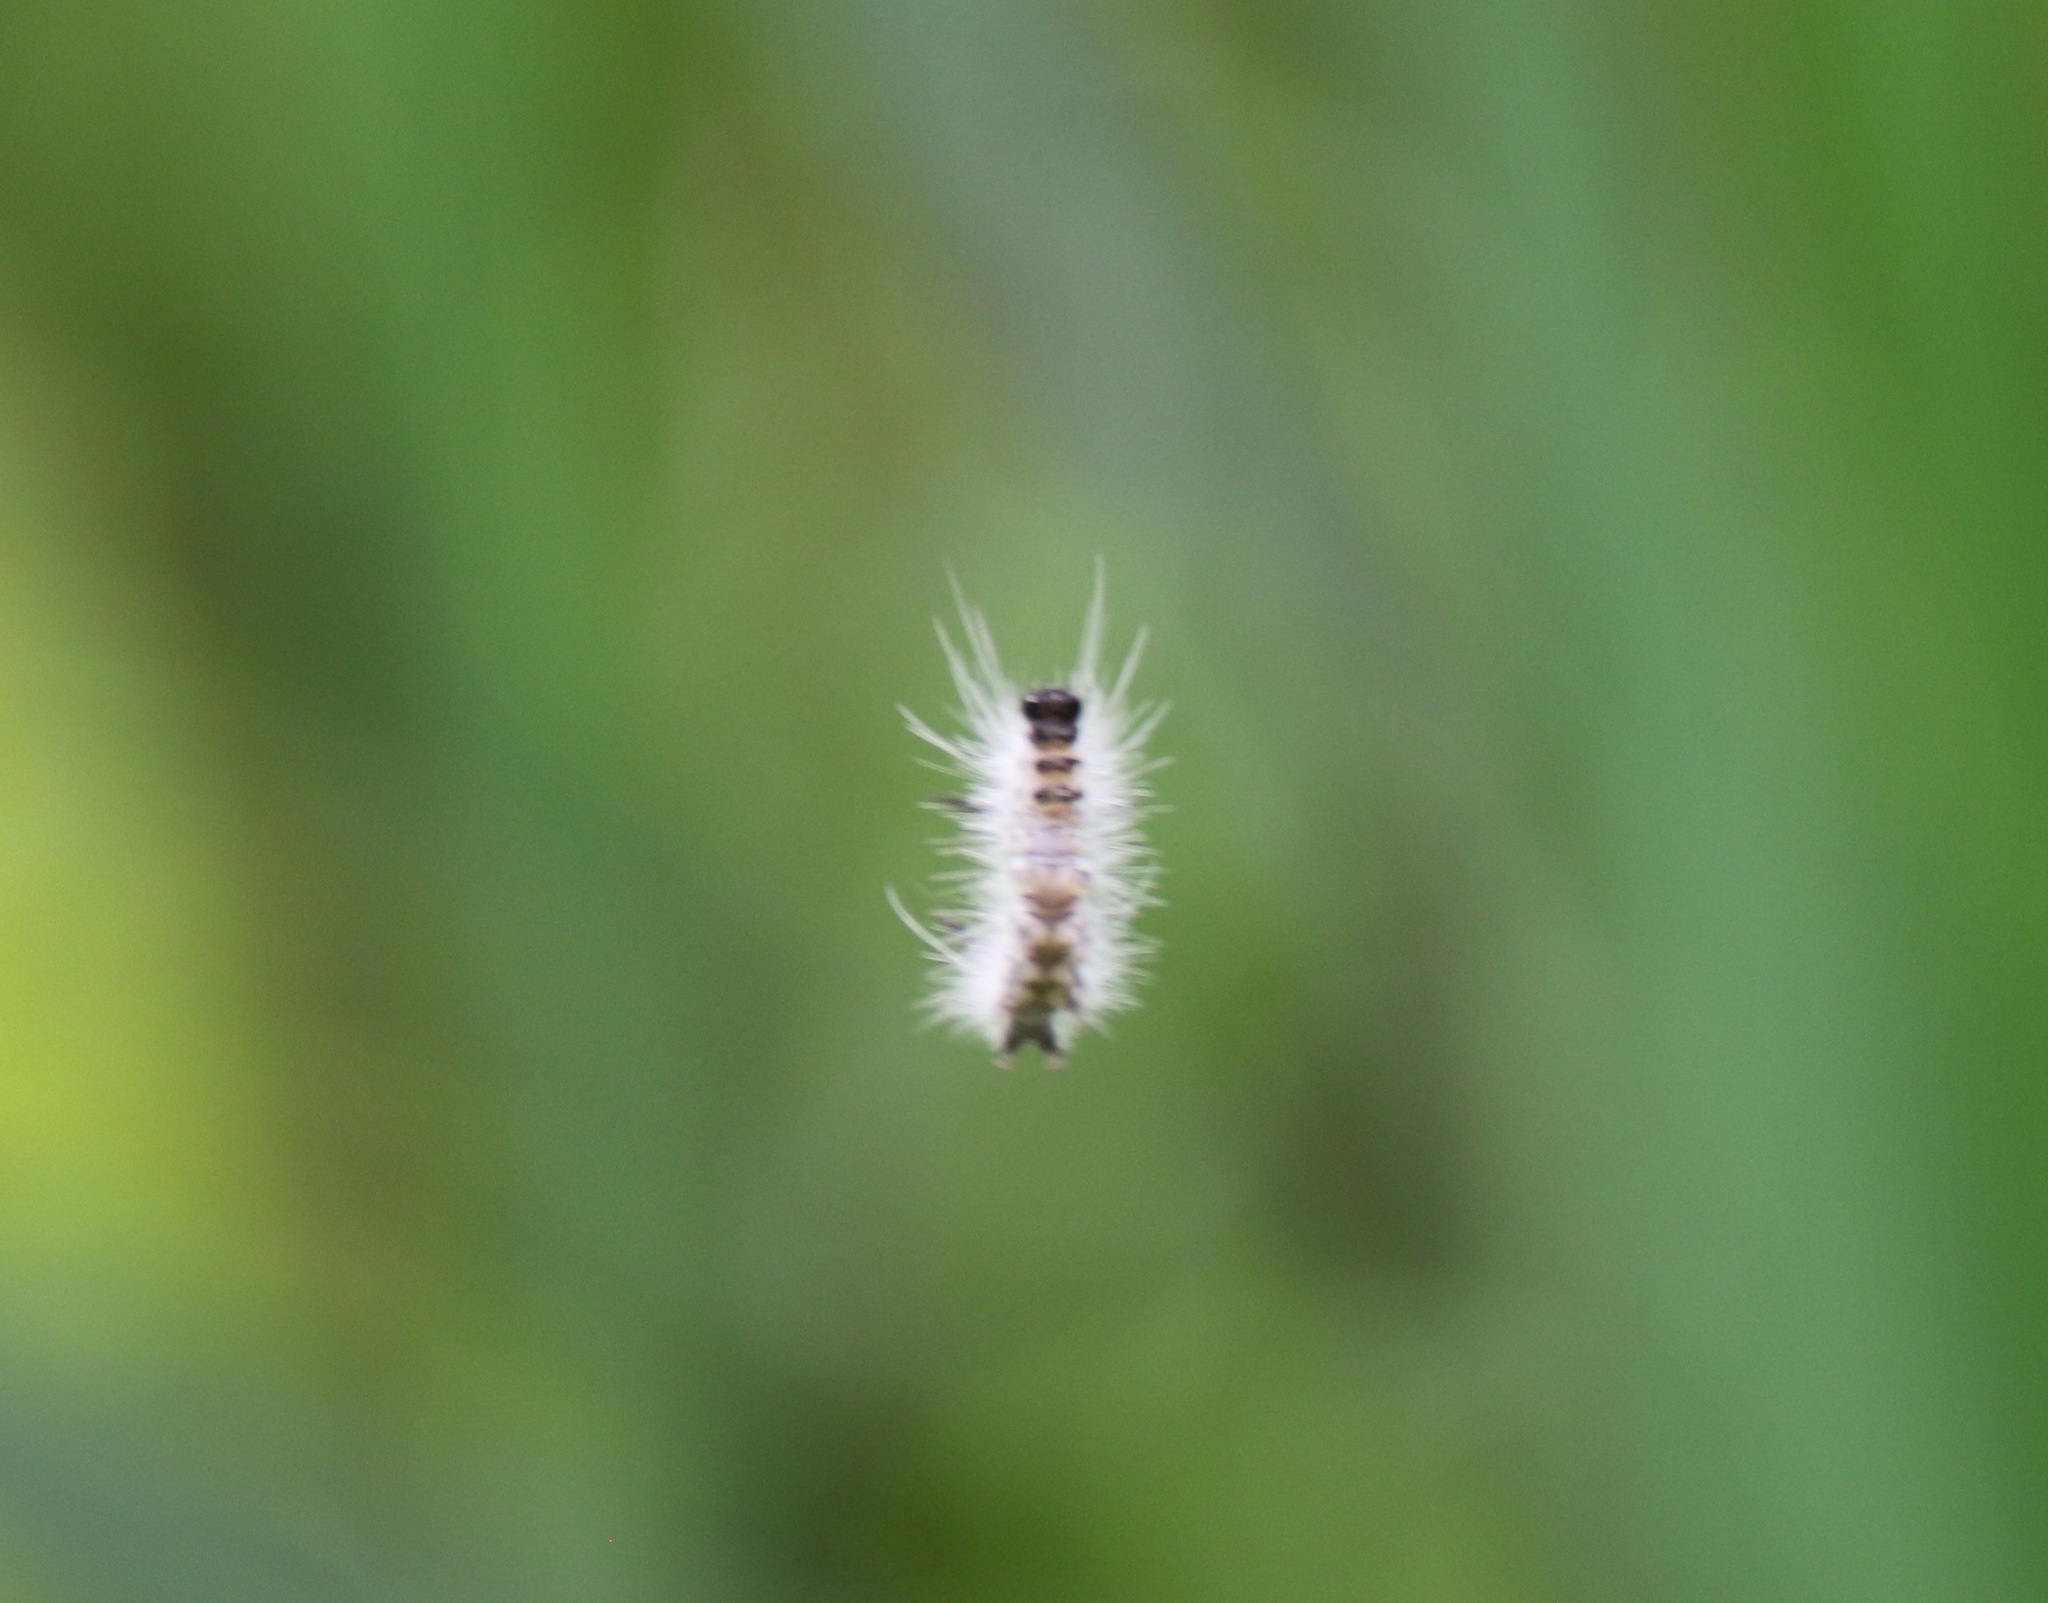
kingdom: Animalia
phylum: Arthropoda
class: Insecta
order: Lepidoptera
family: Erebidae
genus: Lophocampa
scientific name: Lophocampa caryae
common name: Hickory tussock moth
